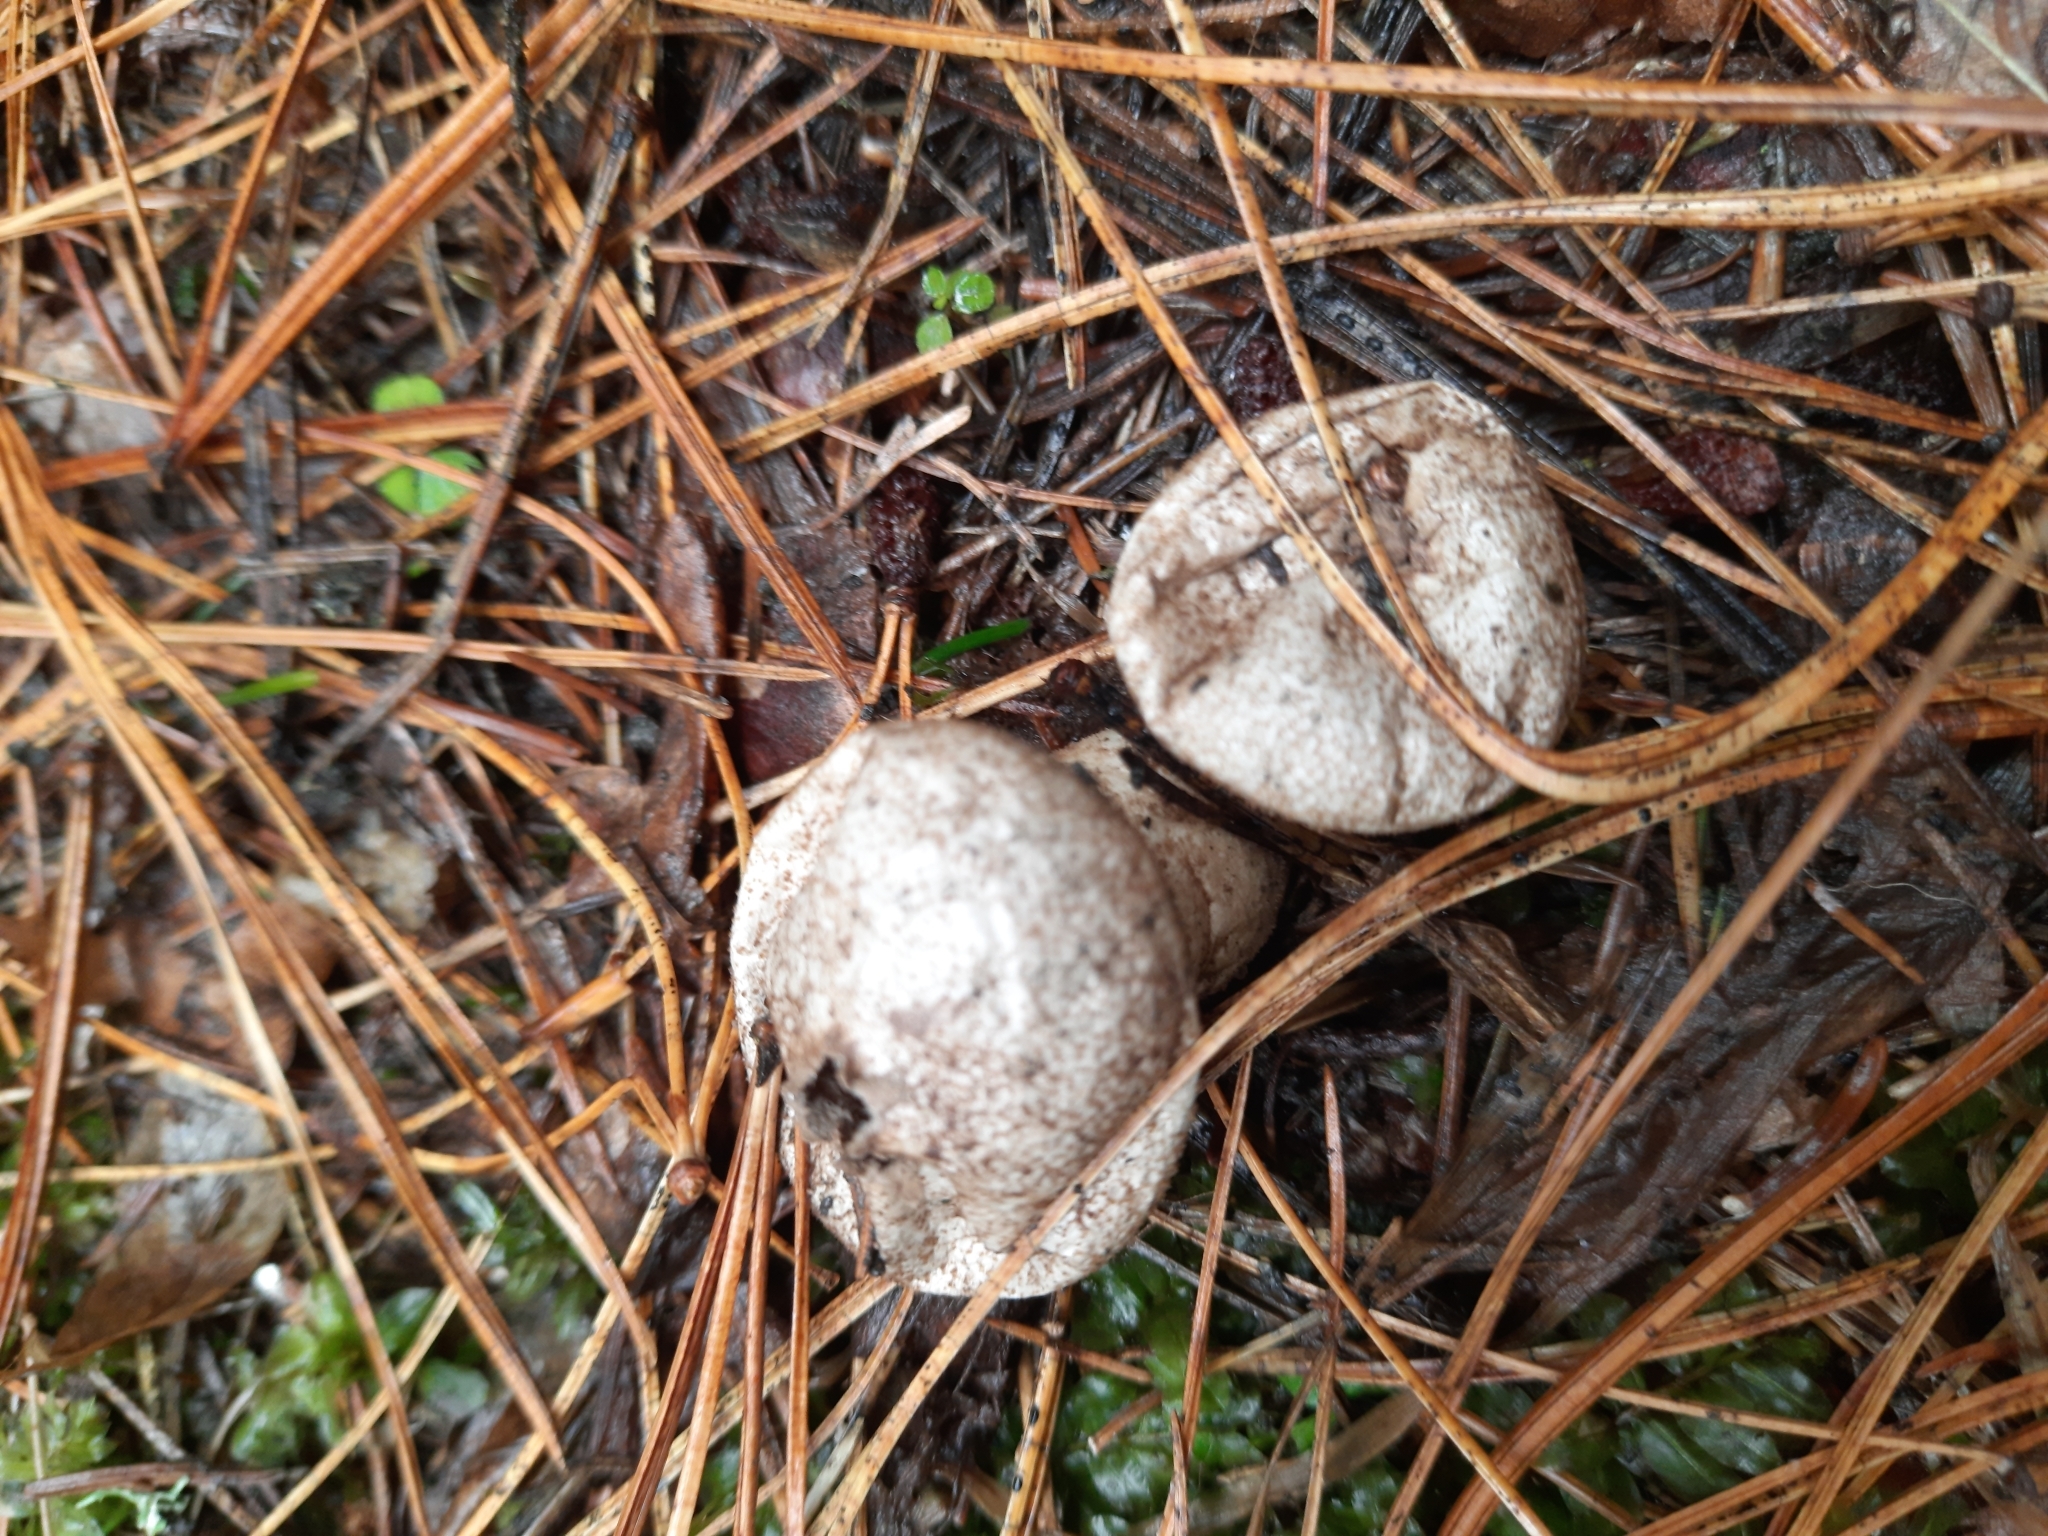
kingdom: Fungi
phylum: Basidiomycota
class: Agaricomycetes
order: Agaricales
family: Lycoperdaceae
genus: Lycoperdon
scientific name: Lycoperdon perlatum
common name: Common puffball
